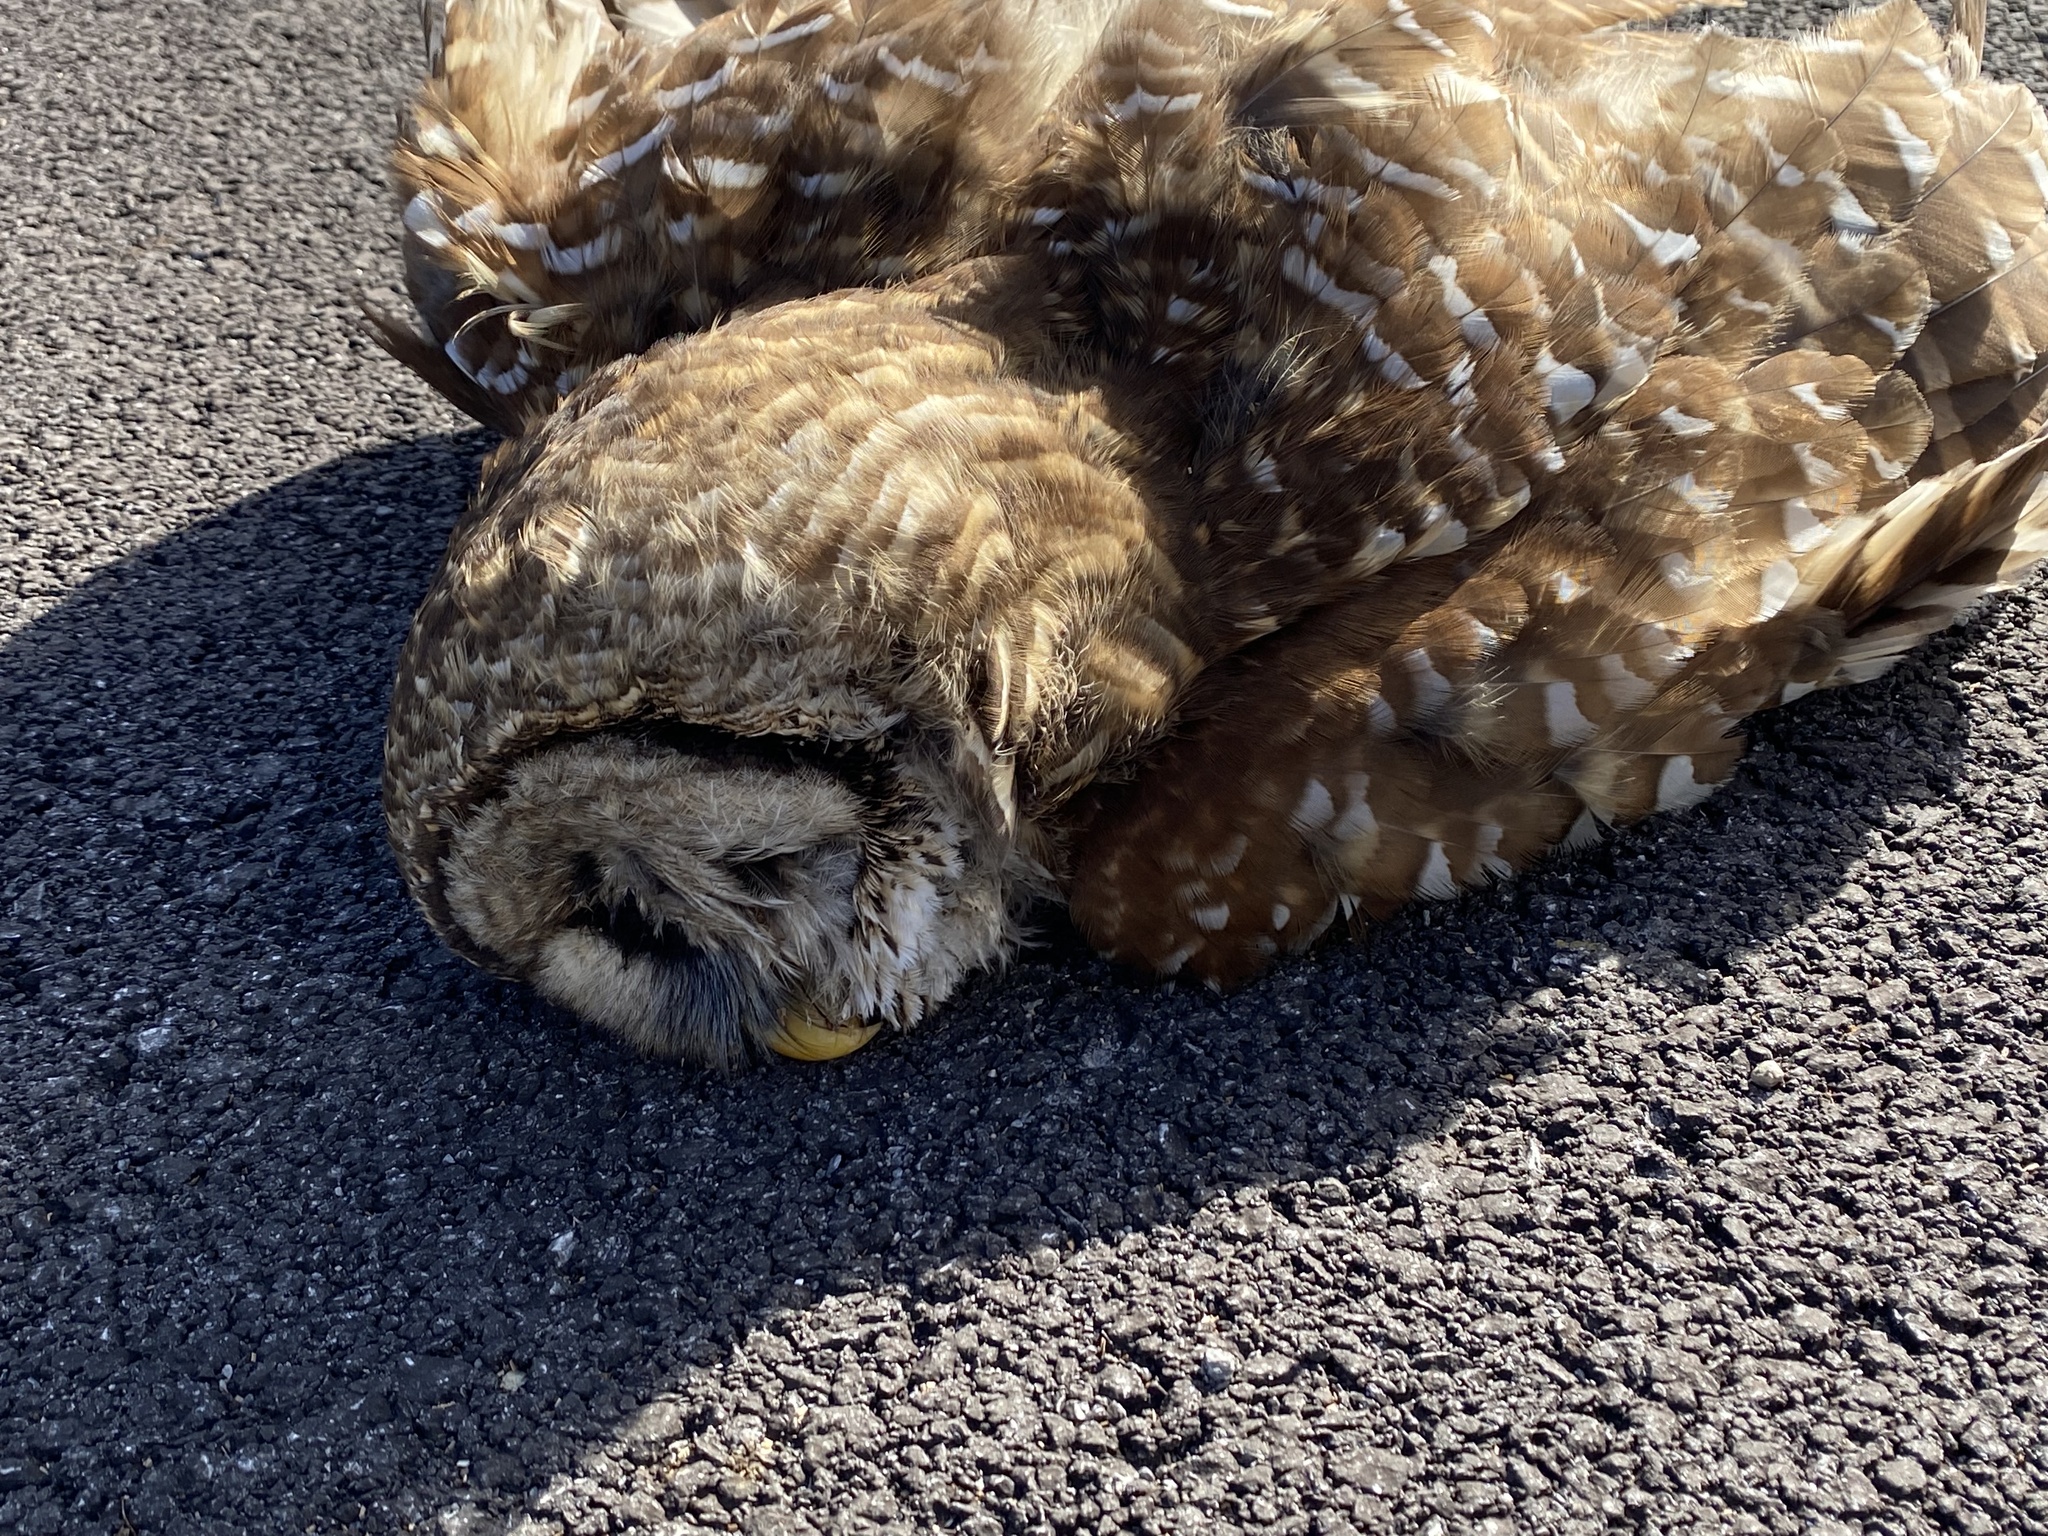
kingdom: Animalia
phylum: Chordata
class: Aves
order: Strigiformes
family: Strigidae
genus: Strix
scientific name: Strix varia
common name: Barred owl
